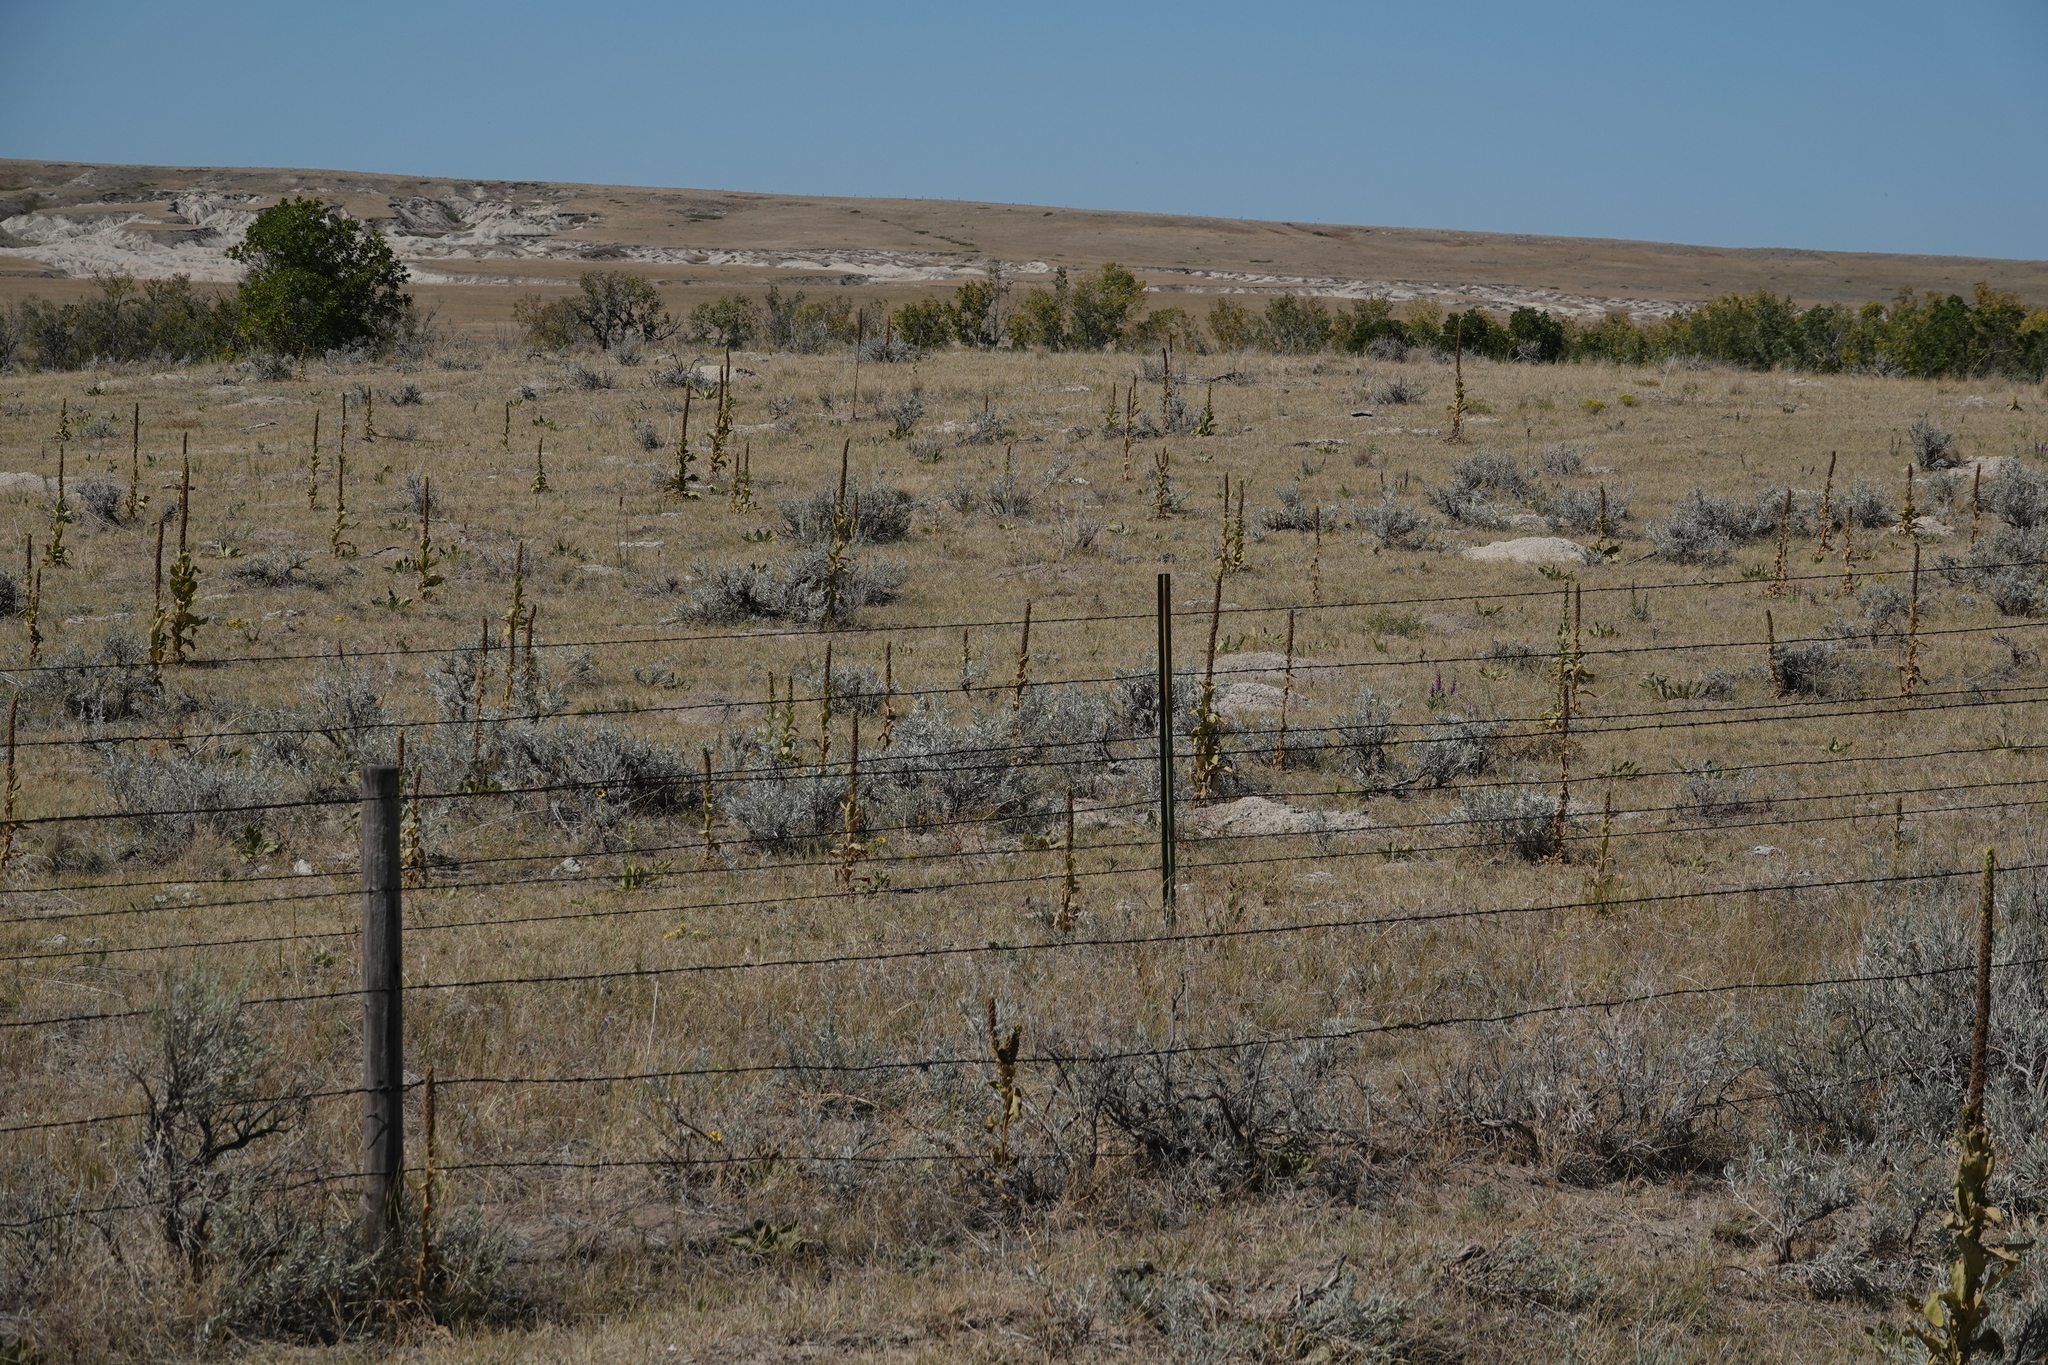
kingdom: Plantae
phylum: Tracheophyta
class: Magnoliopsida
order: Lamiales
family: Scrophulariaceae
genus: Verbascum
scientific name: Verbascum thapsus
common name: Common mullein
